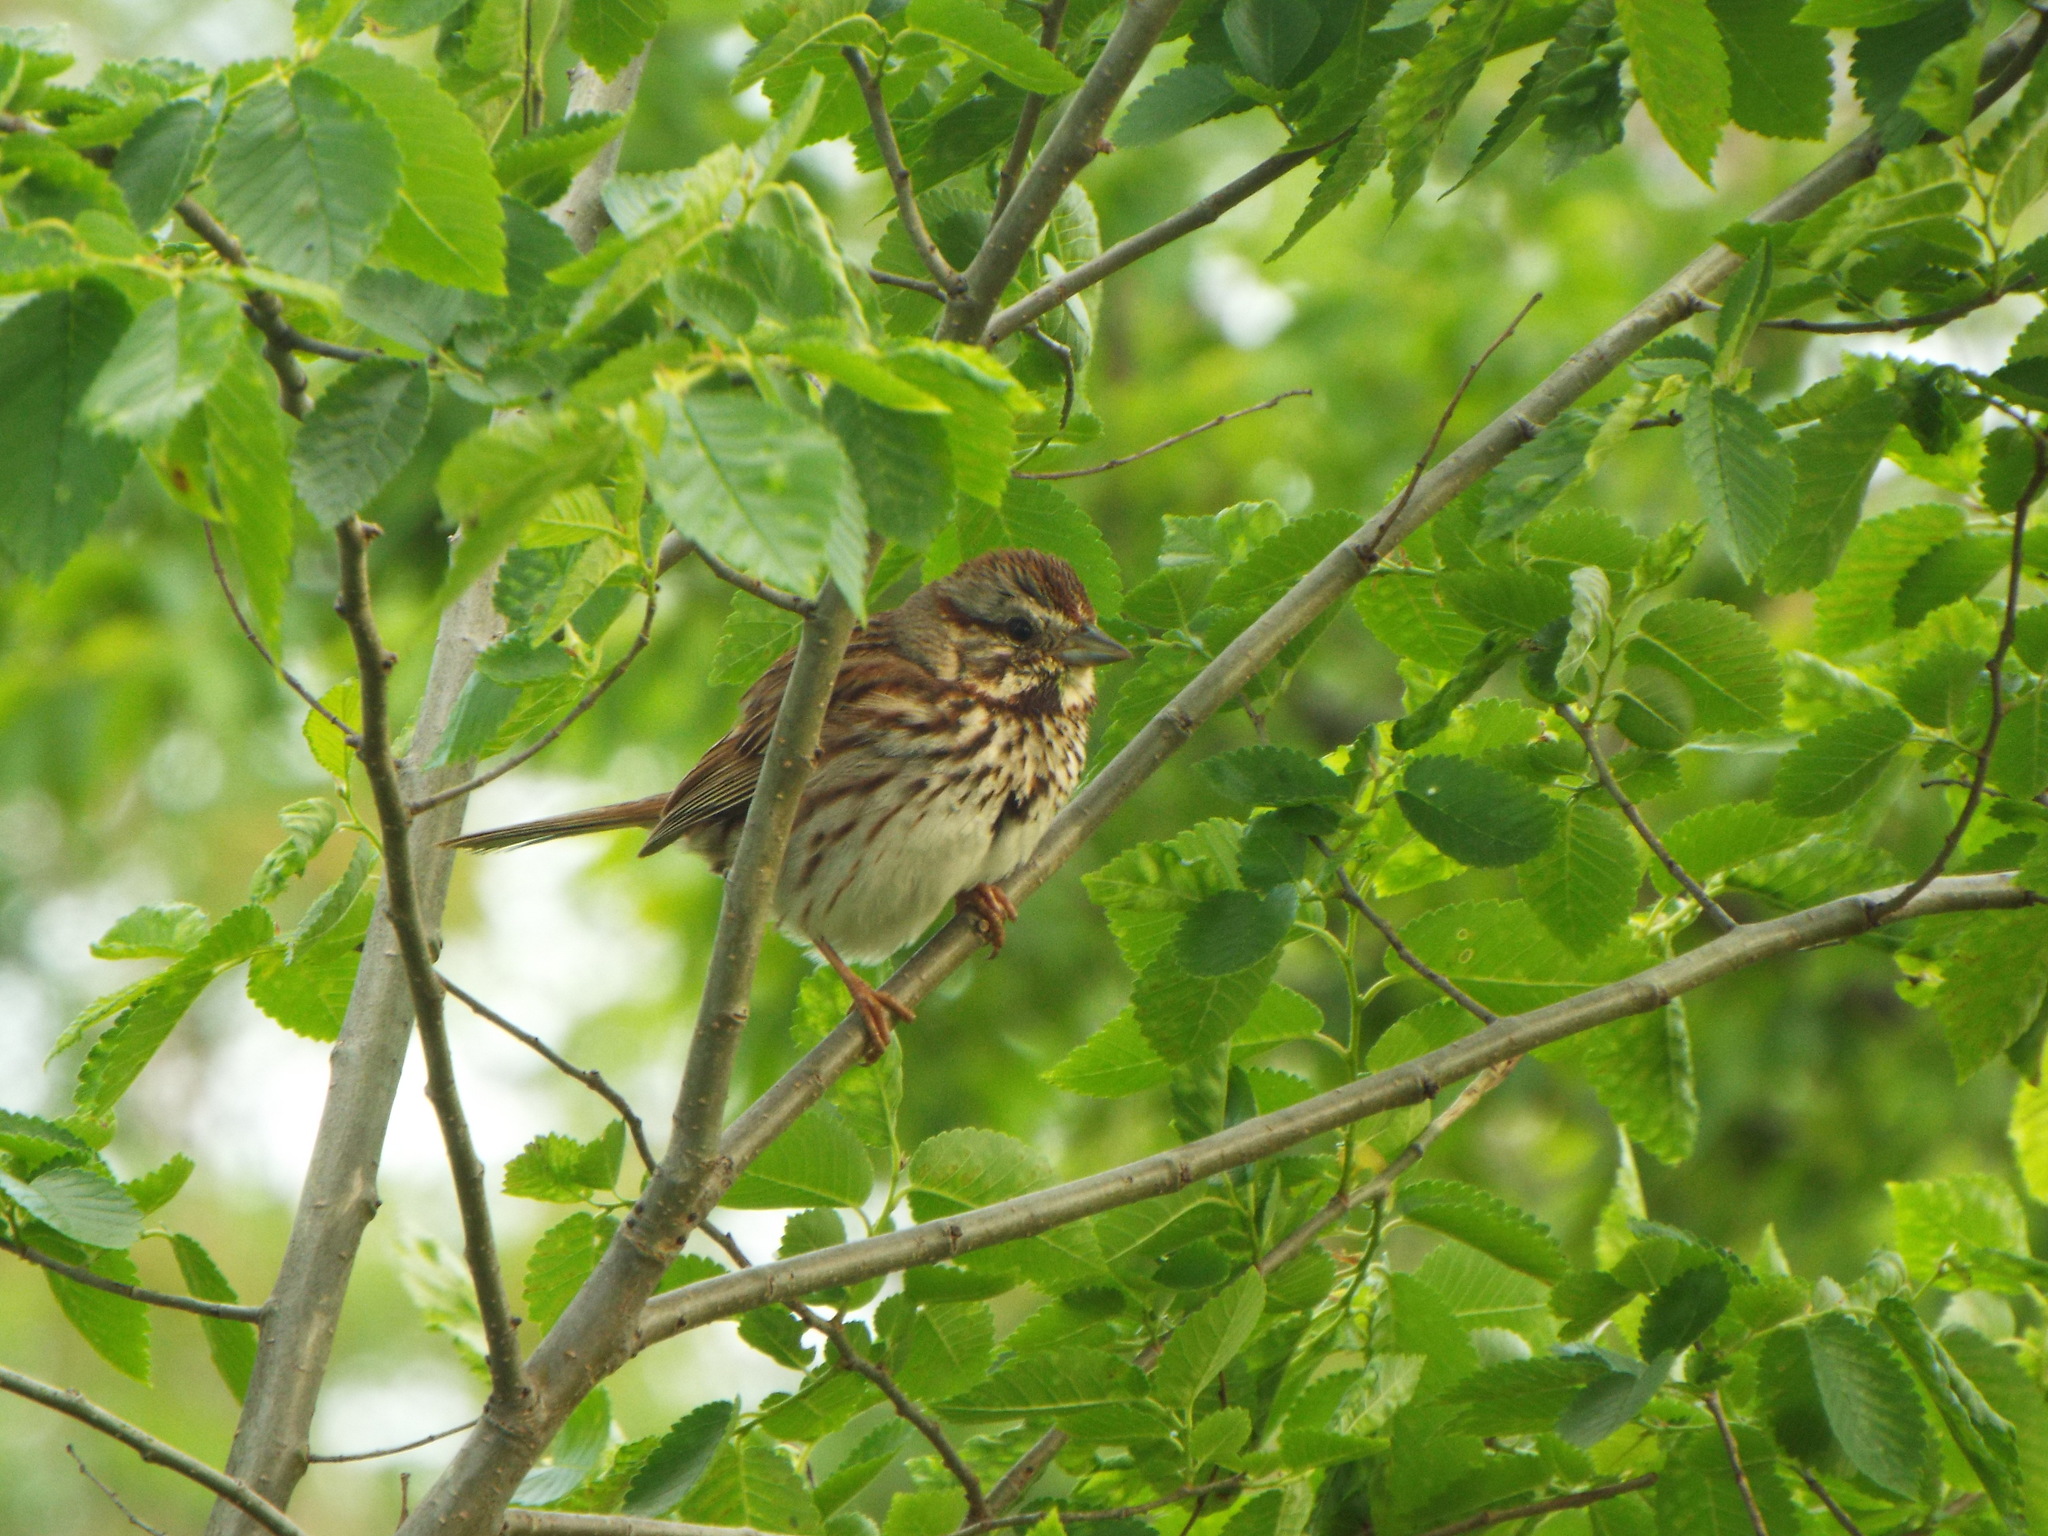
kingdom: Animalia
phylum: Chordata
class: Aves
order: Passeriformes
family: Passerellidae
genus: Melospiza
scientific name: Melospiza melodia
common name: Song sparrow
